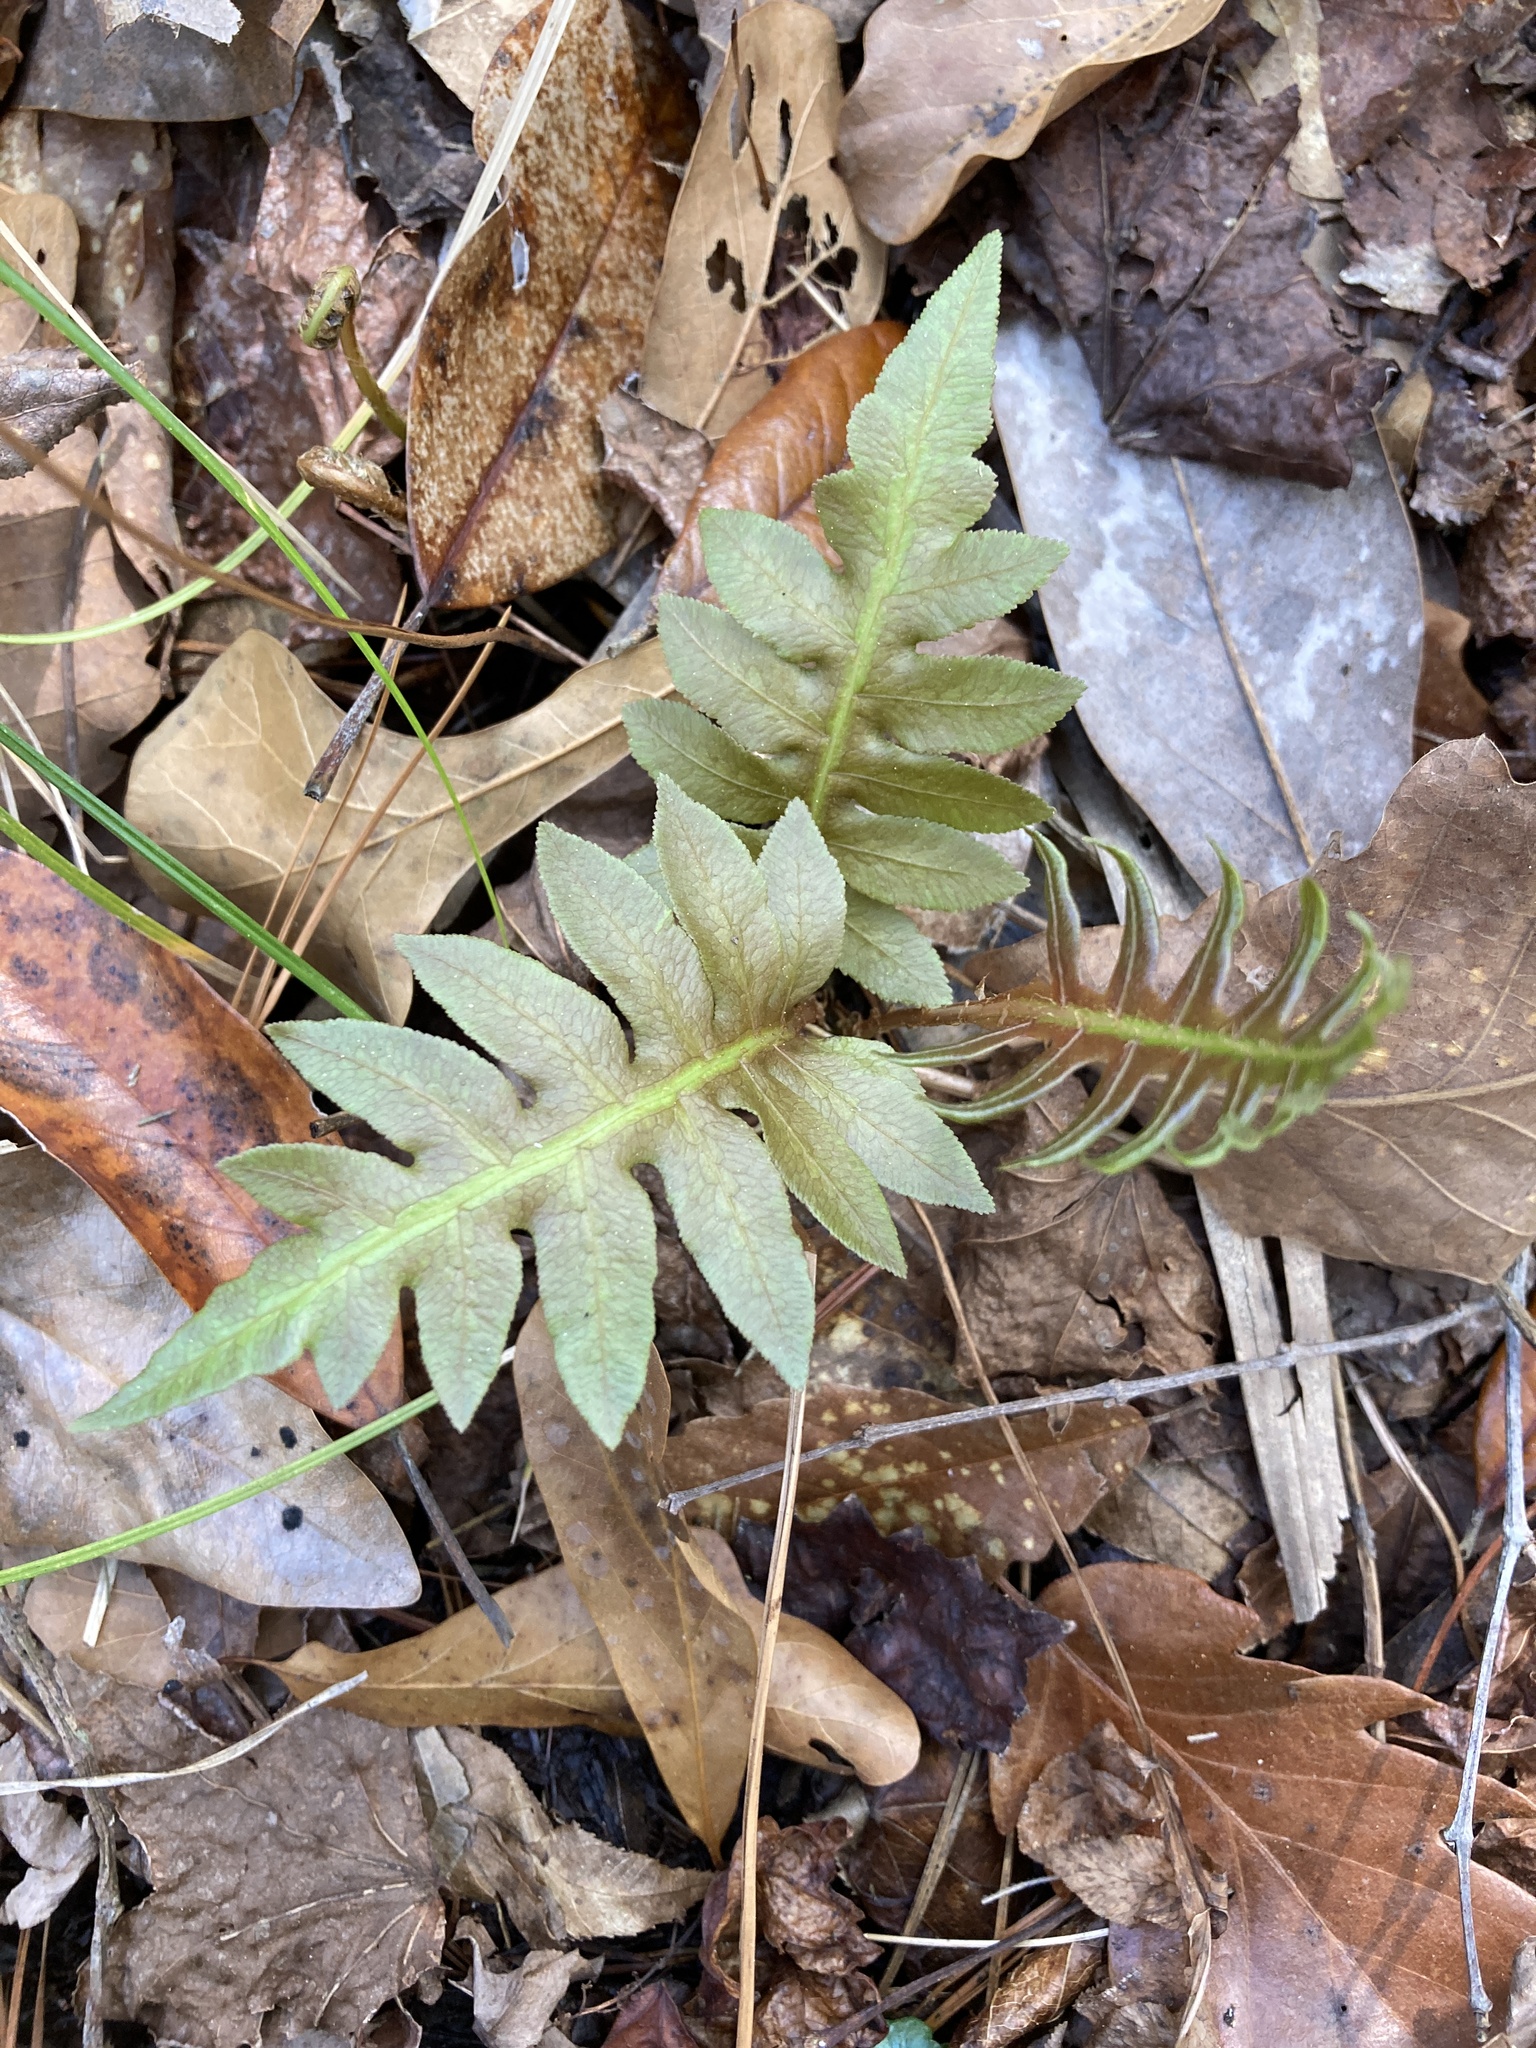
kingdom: Plantae
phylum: Tracheophyta
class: Polypodiopsida
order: Polypodiales
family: Blechnaceae
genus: Lorinseria
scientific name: Lorinseria areolata
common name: Dwarf chain fern
